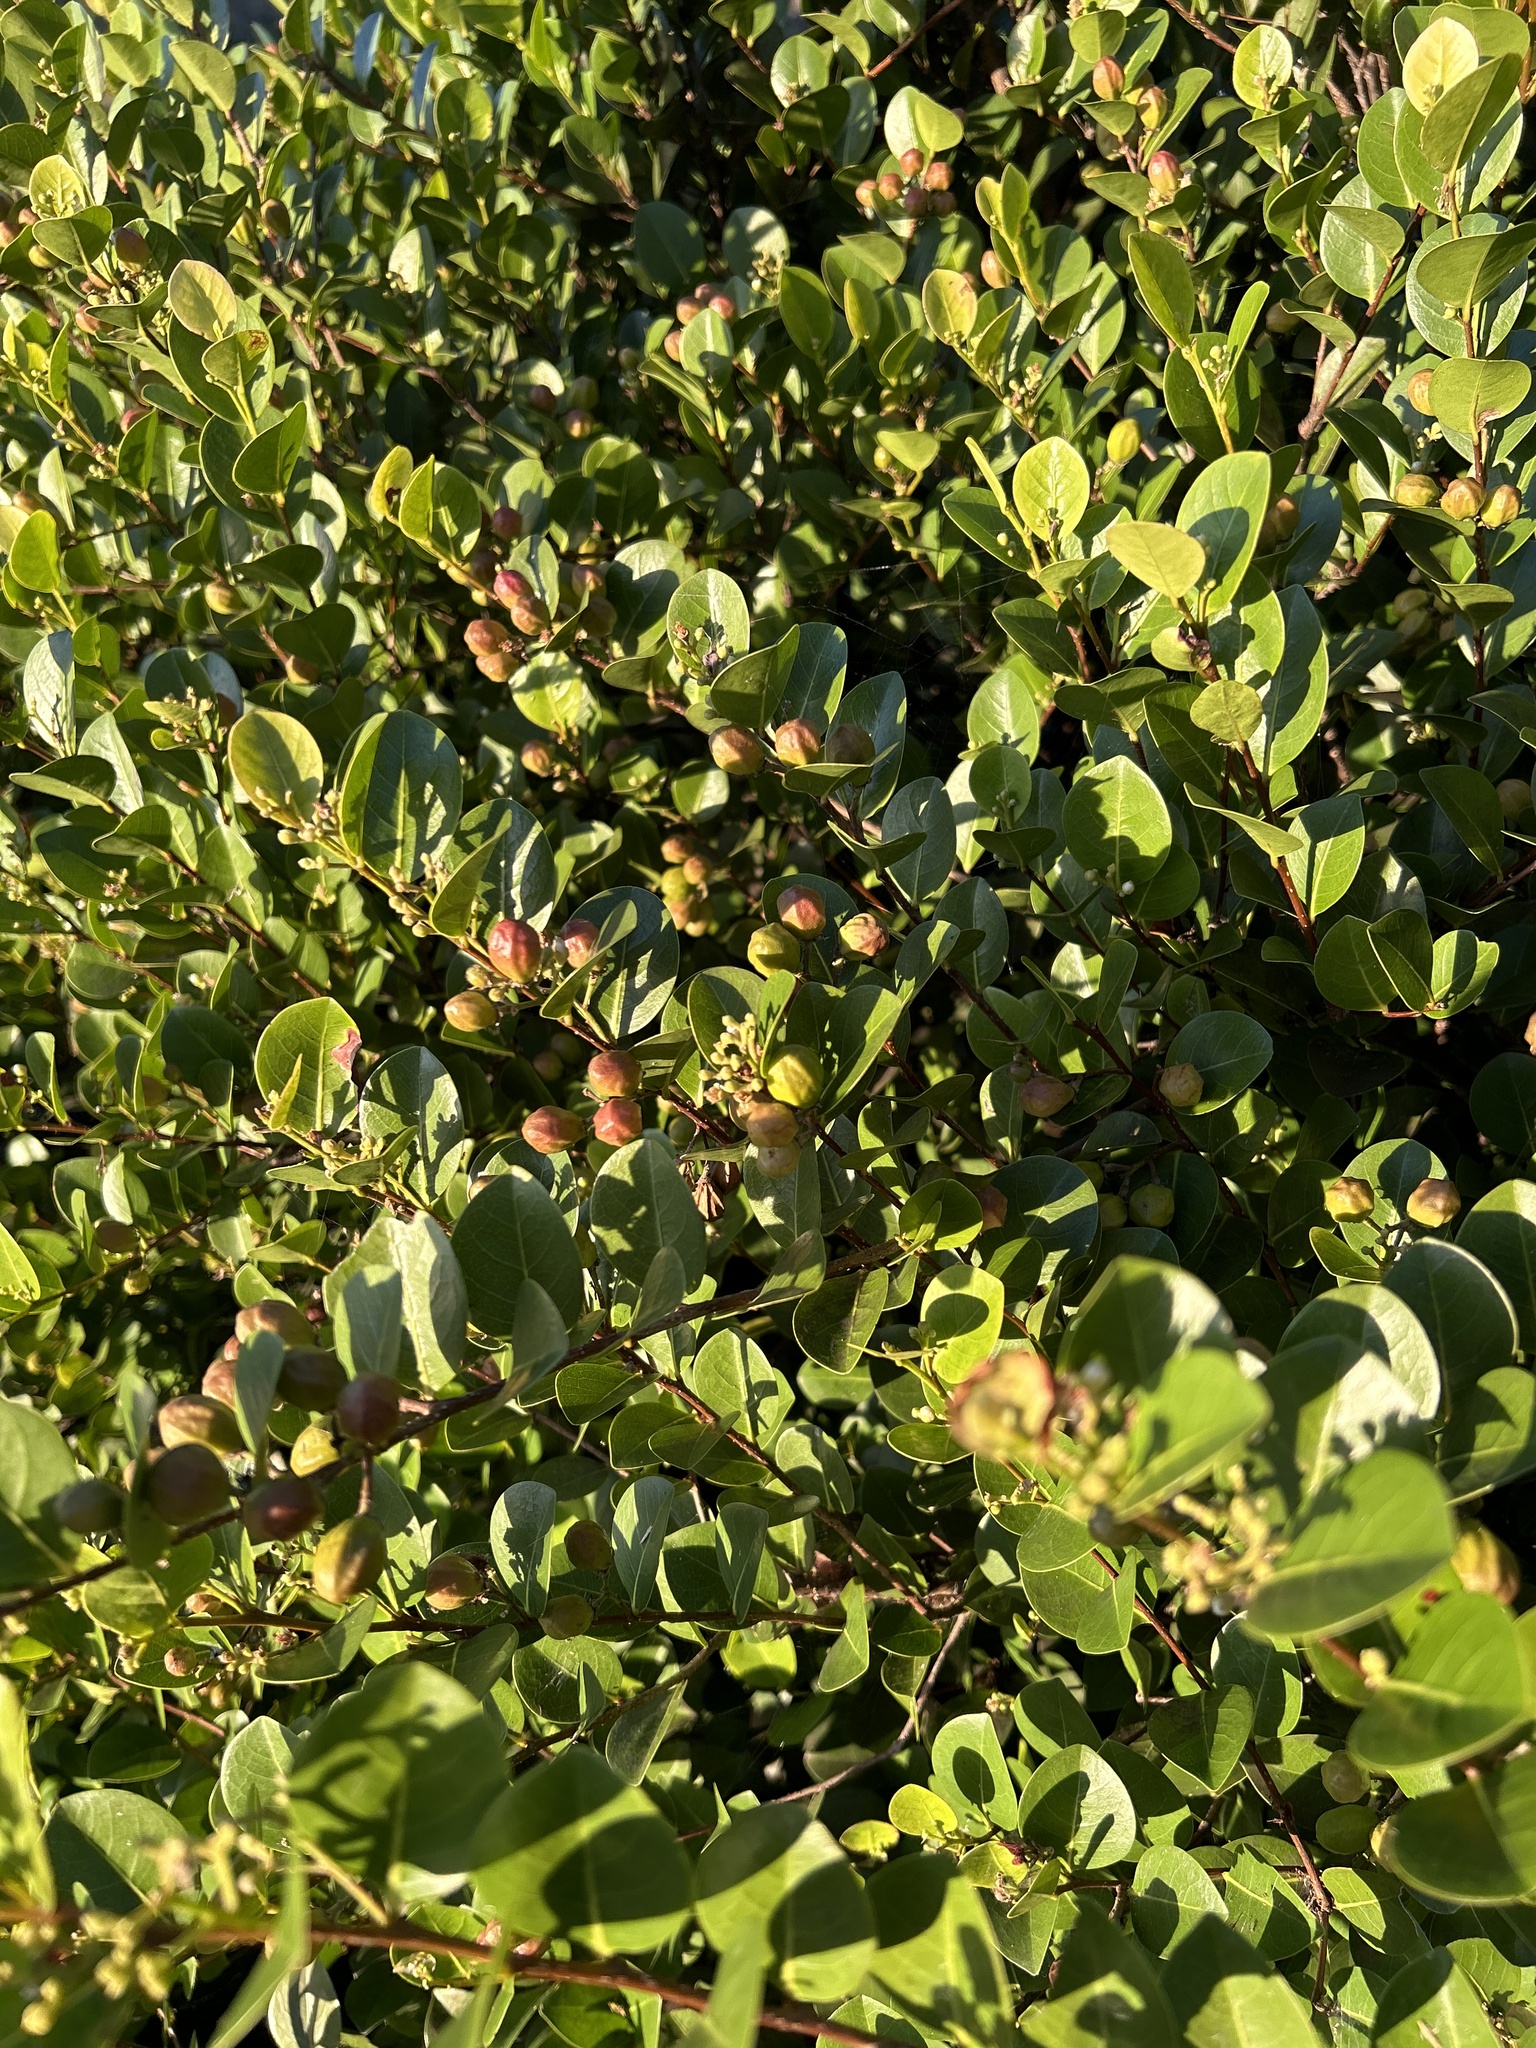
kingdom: Plantae
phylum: Tracheophyta
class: Magnoliopsida
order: Malpighiales
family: Chrysobalanaceae
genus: Chrysobalanus
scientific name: Chrysobalanus icaco
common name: Coco plum
